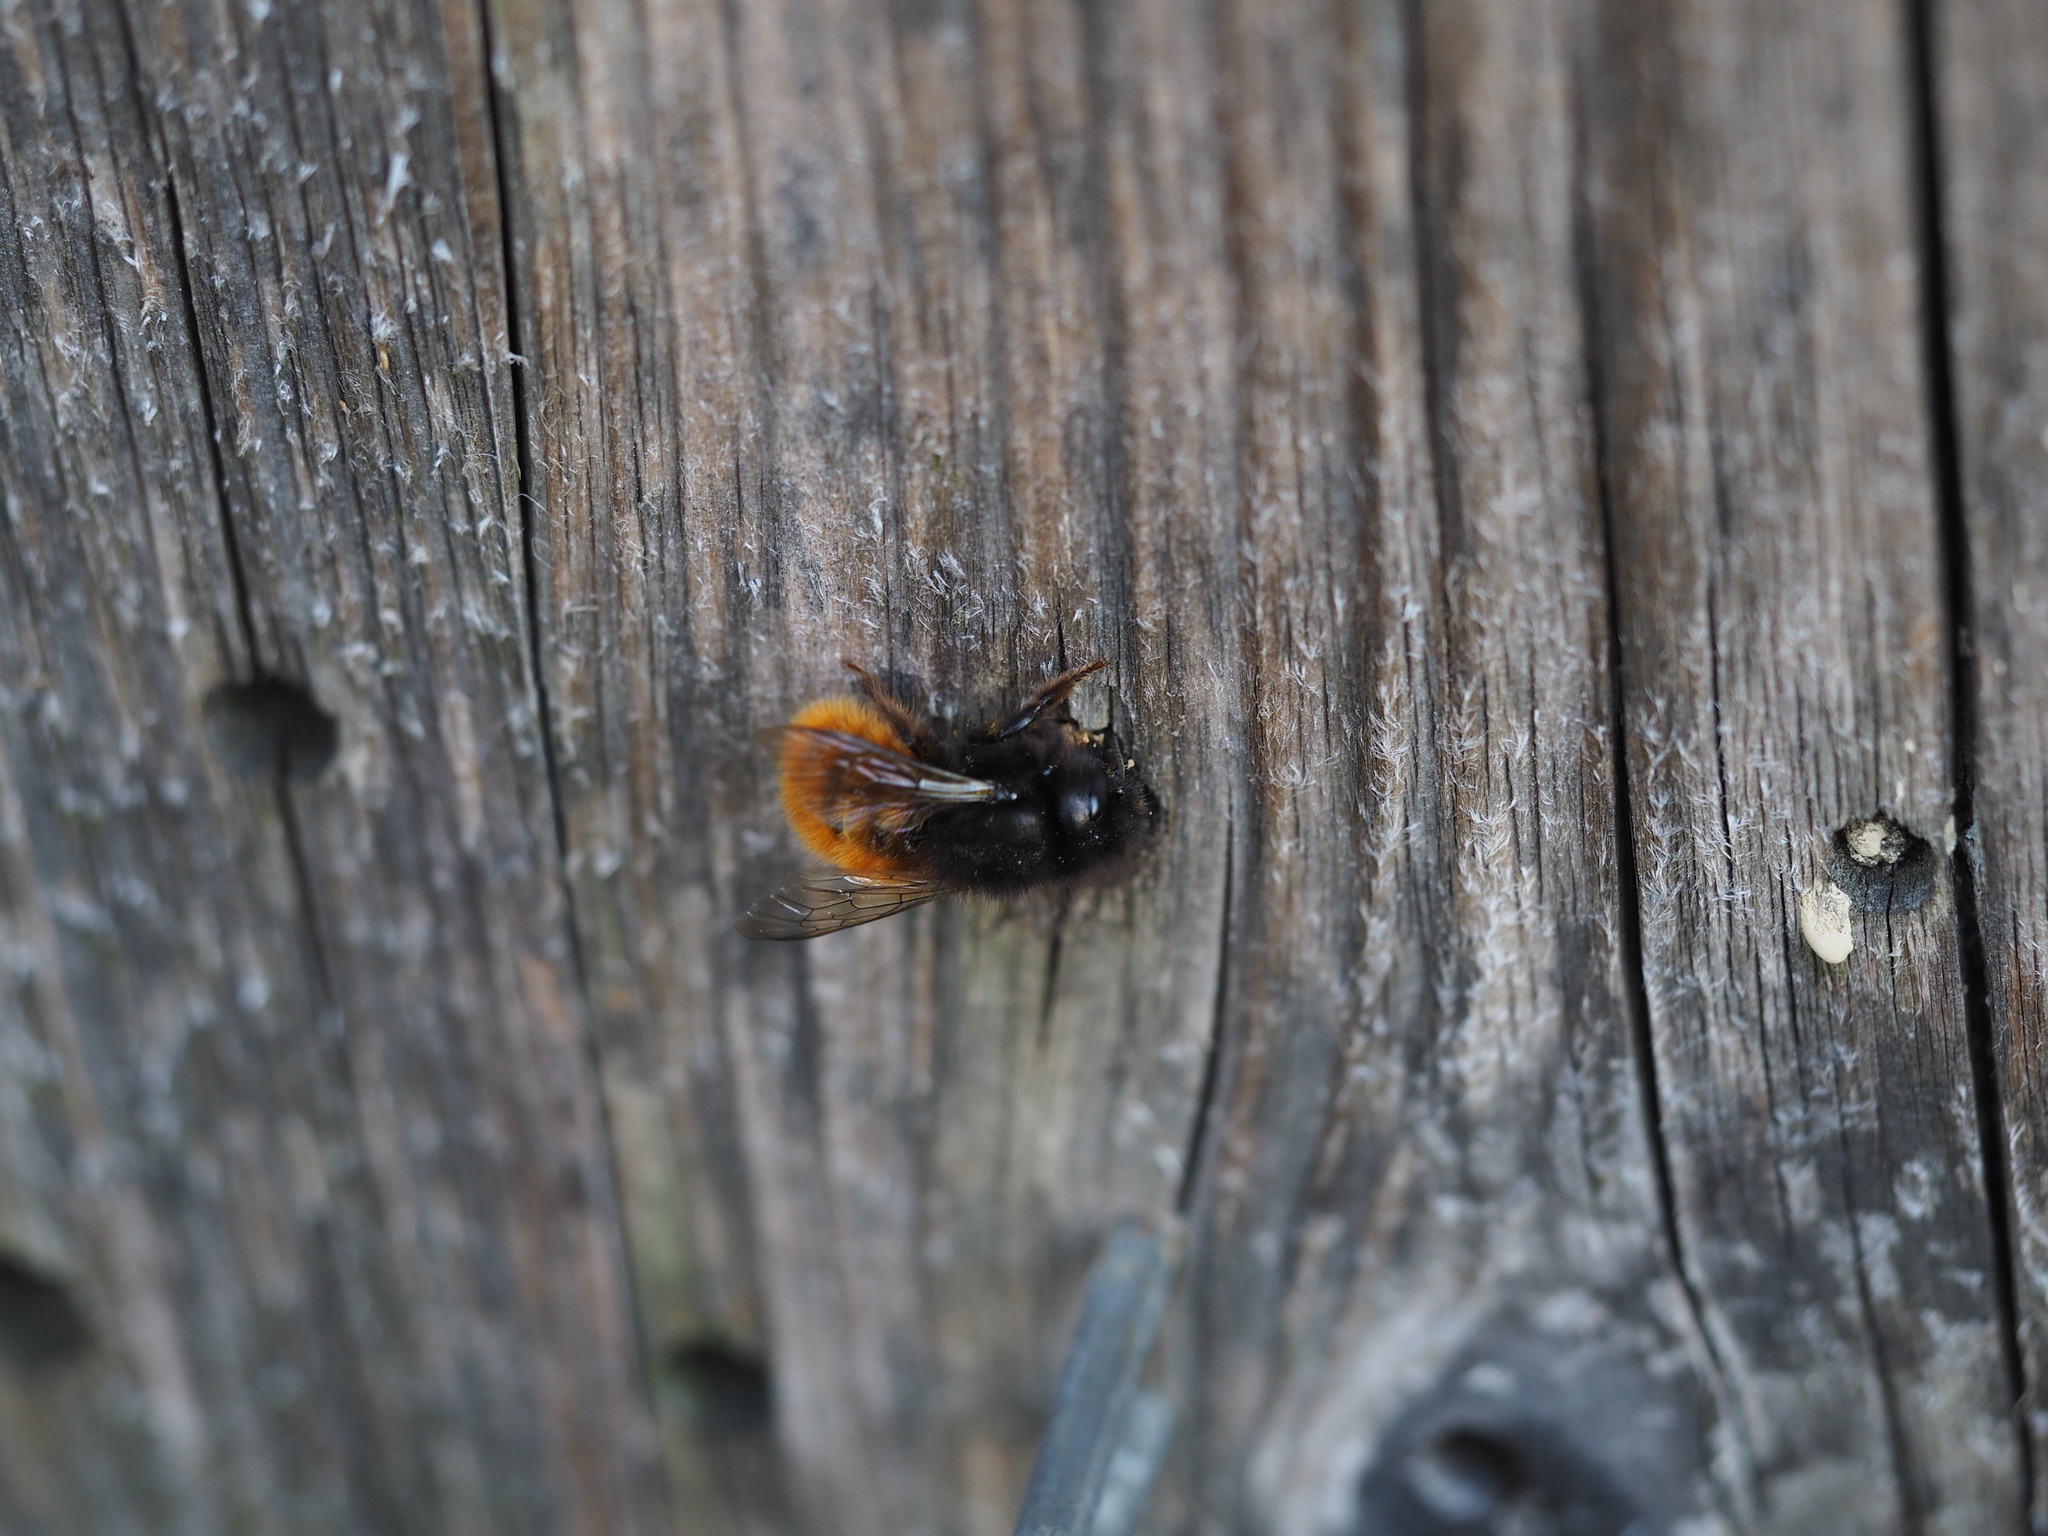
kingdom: Animalia
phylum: Arthropoda
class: Insecta
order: Hymenoptera
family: Megachilidae
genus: Osmia
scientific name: Osmia cornuta
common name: Mason bee
